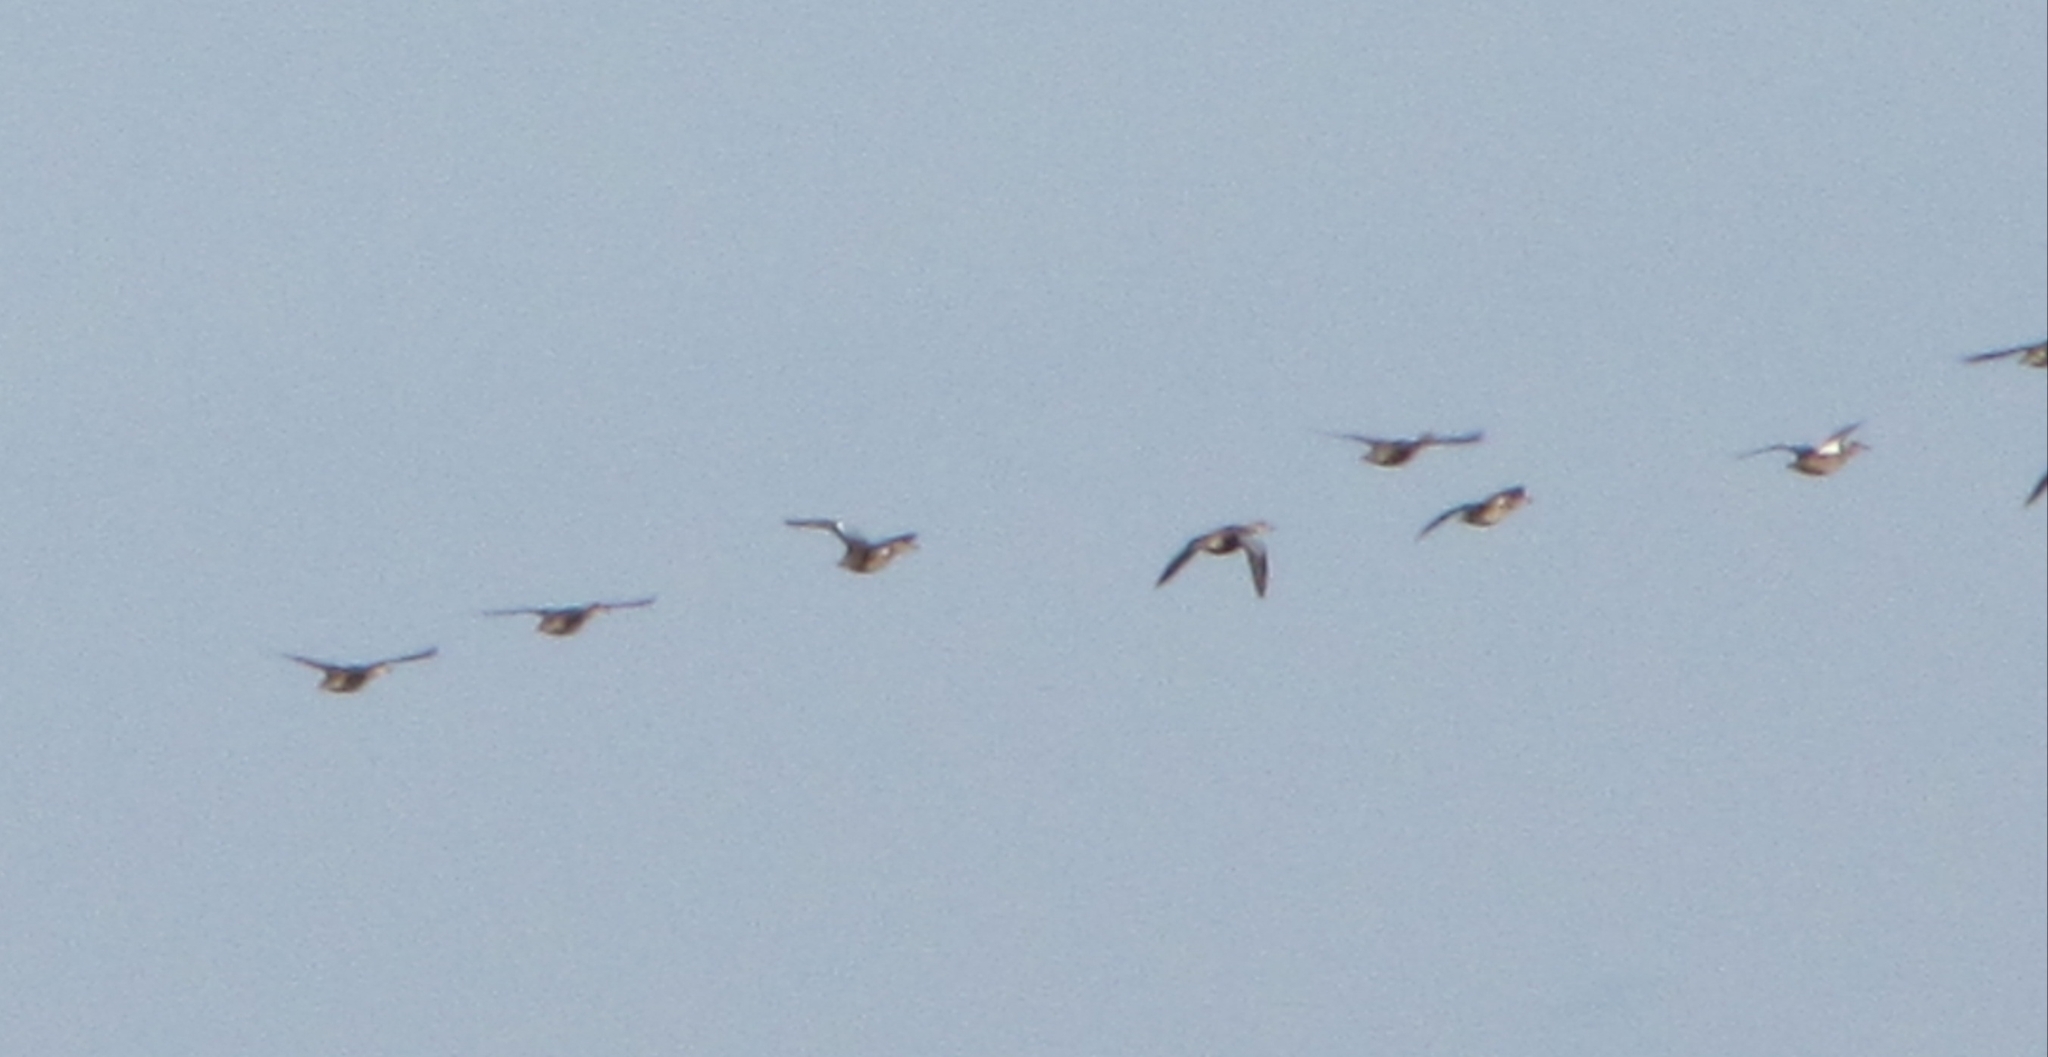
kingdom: Animalia
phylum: Chordata
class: Aves
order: Anseriformes
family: Anatidae
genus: Spatula
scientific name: Spatula discors
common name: Blue-winged teal
